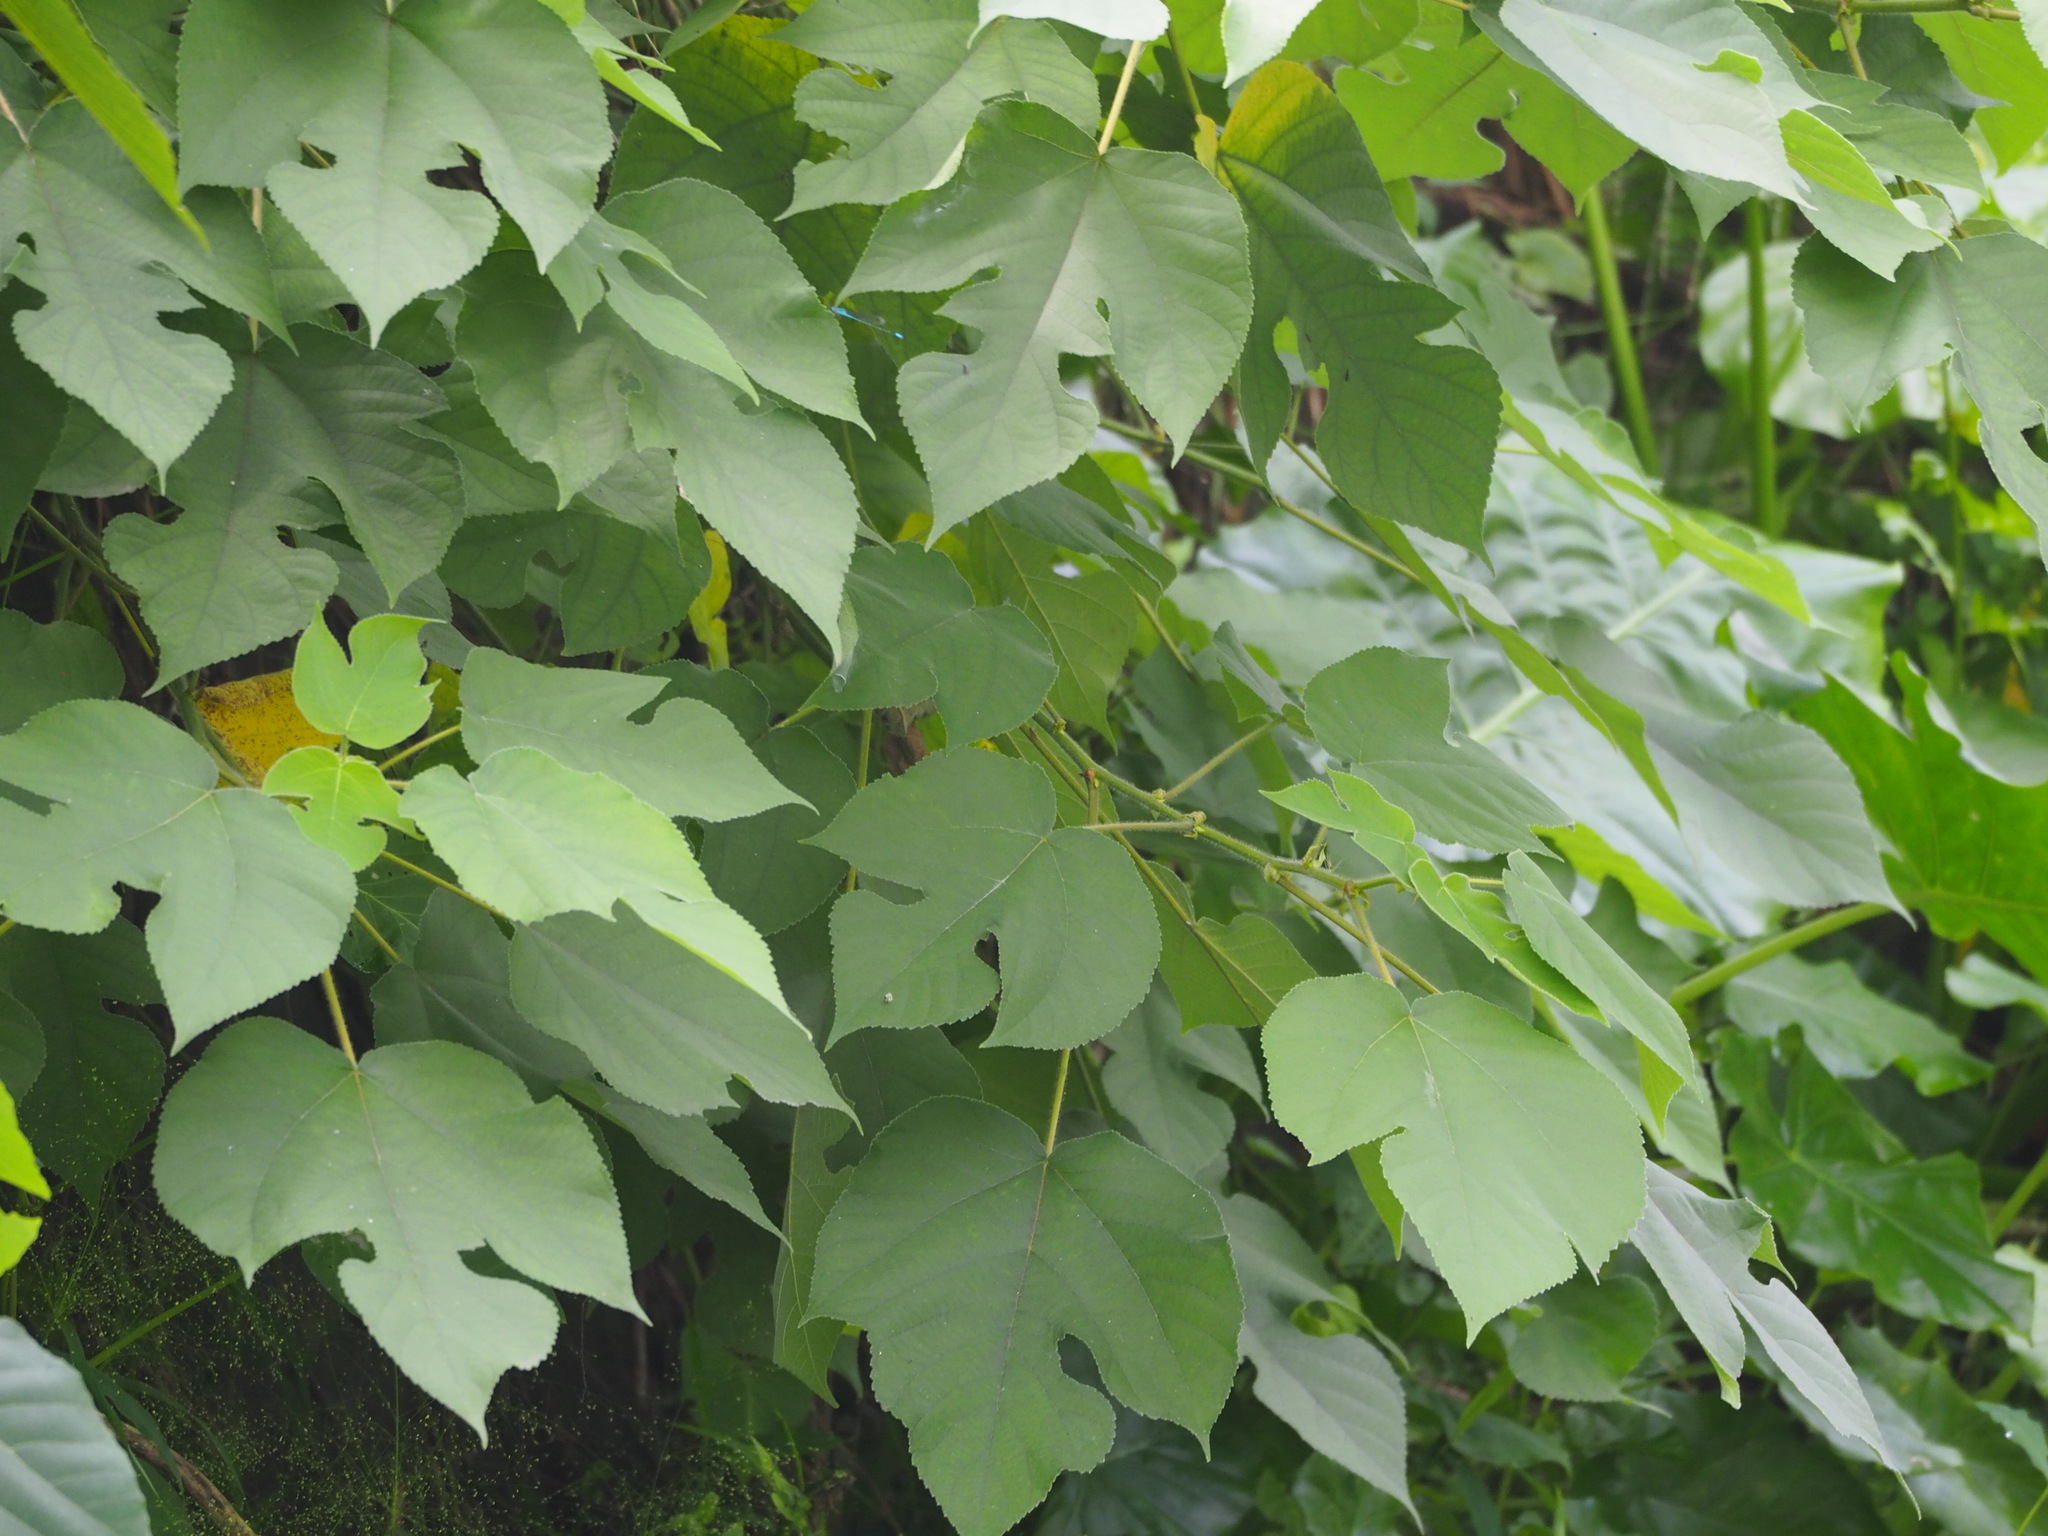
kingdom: Plantae
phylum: Tracheophyta
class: Magnoliopsida
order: Rosales
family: Moraceae
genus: Broussonetia
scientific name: Broussonetia papyrifera
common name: Paper mulberry
